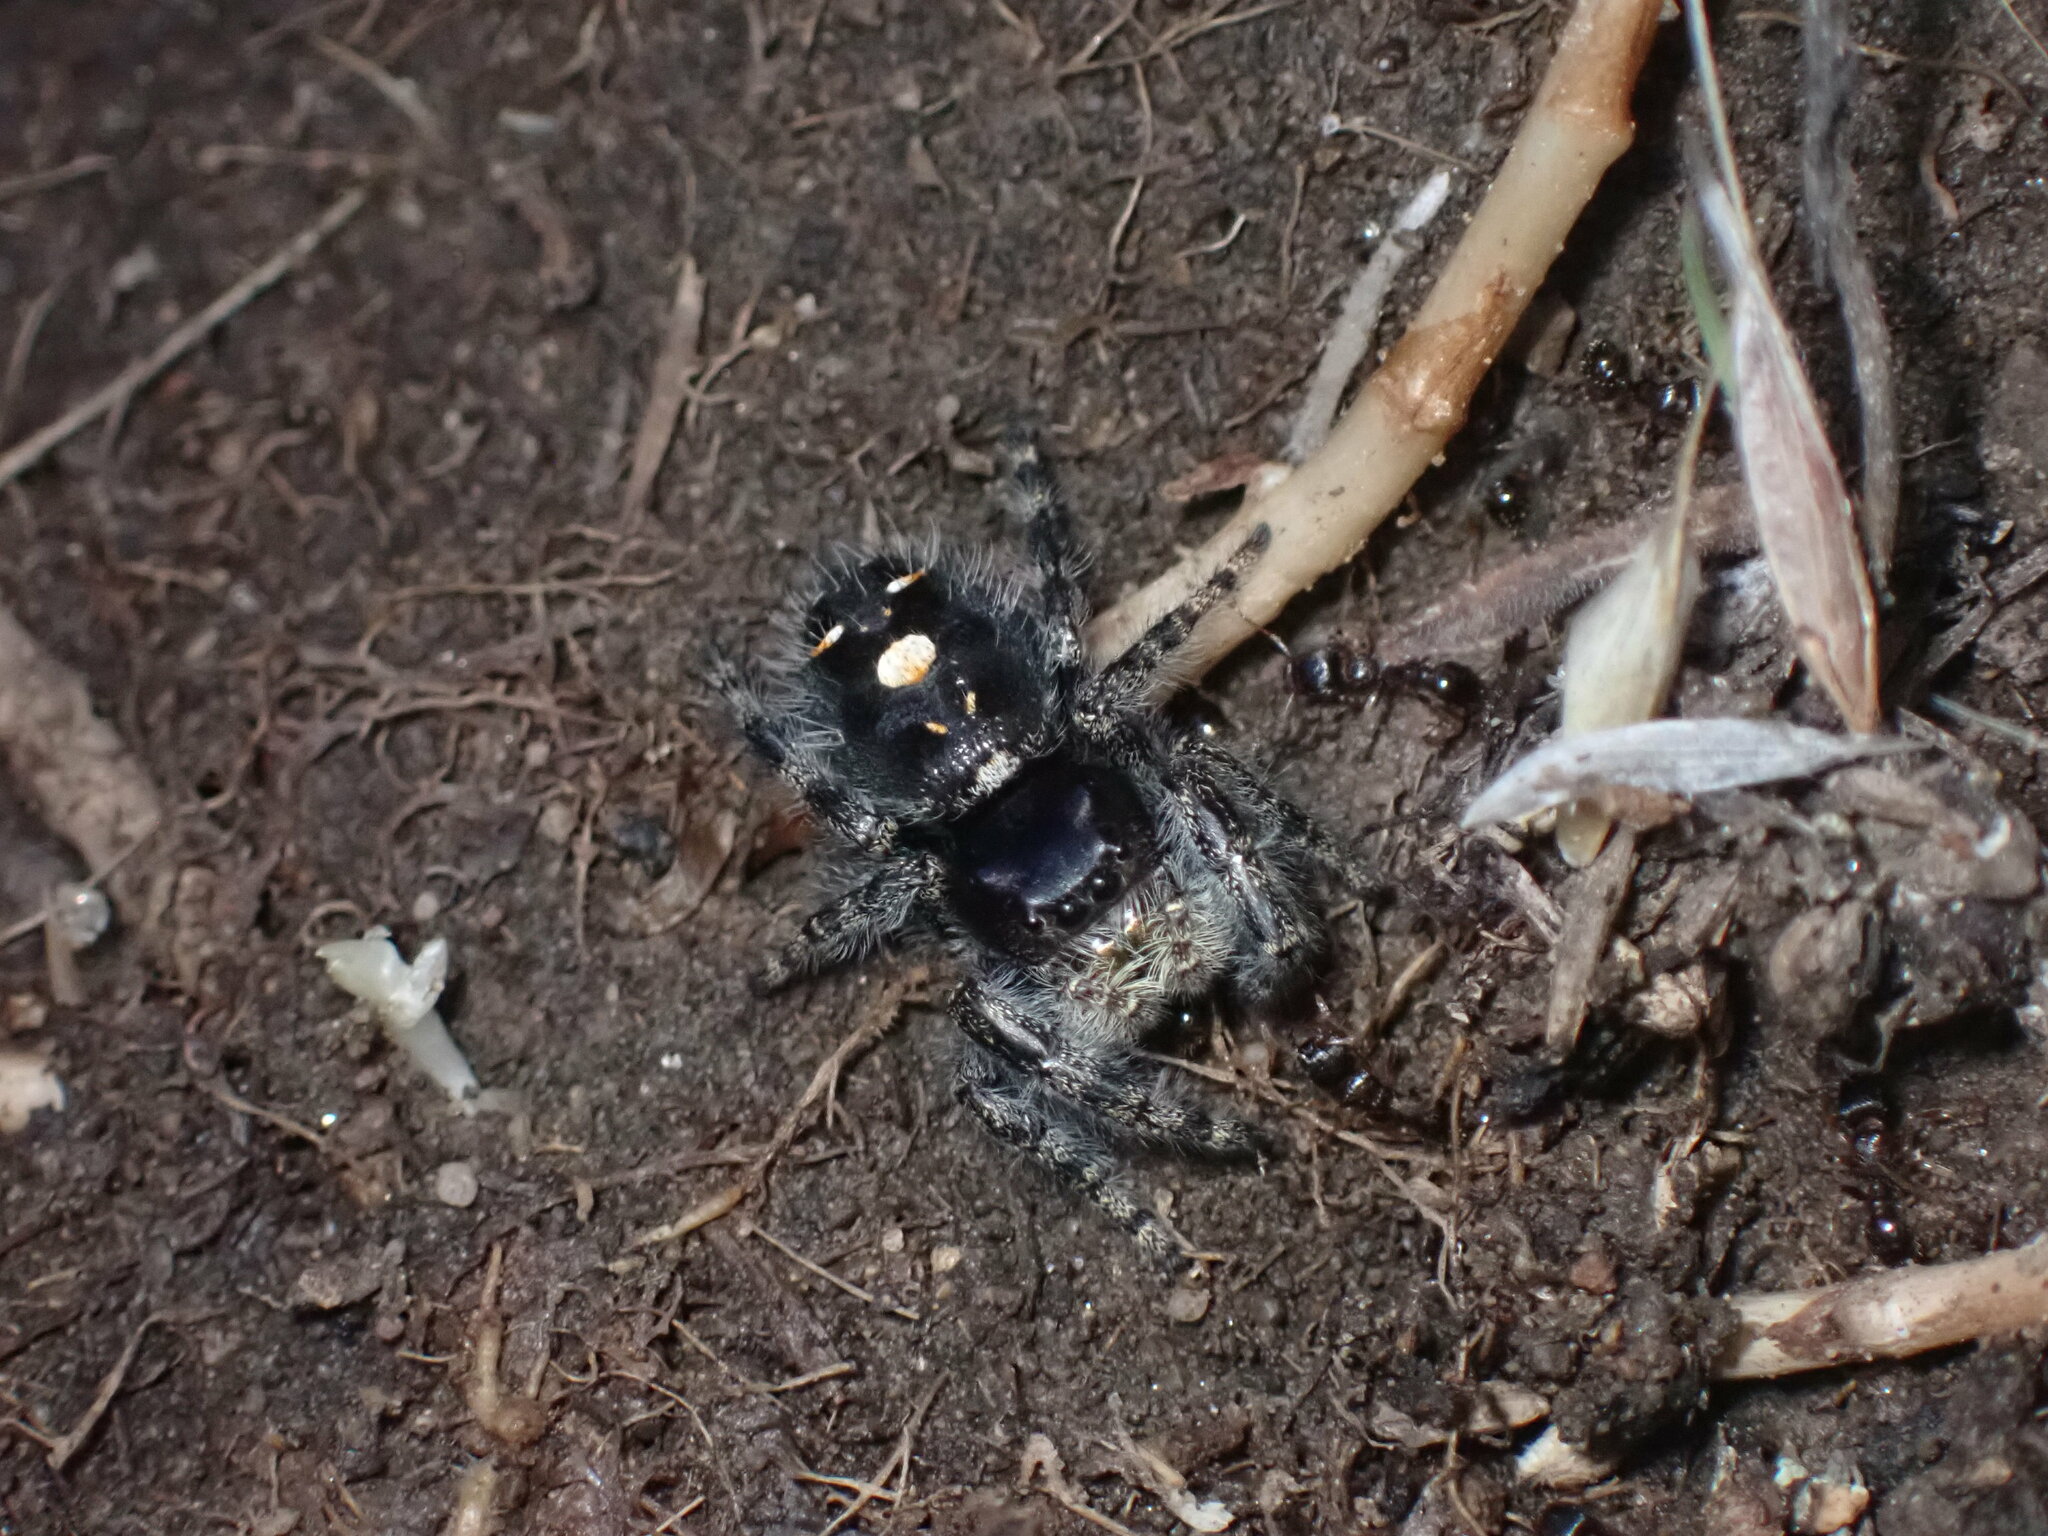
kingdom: Animalia
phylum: Arthropoda
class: Arachnida
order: Araneae
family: Salticidae
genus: Phidippus
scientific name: Phidippus audax
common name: Bold jumper
